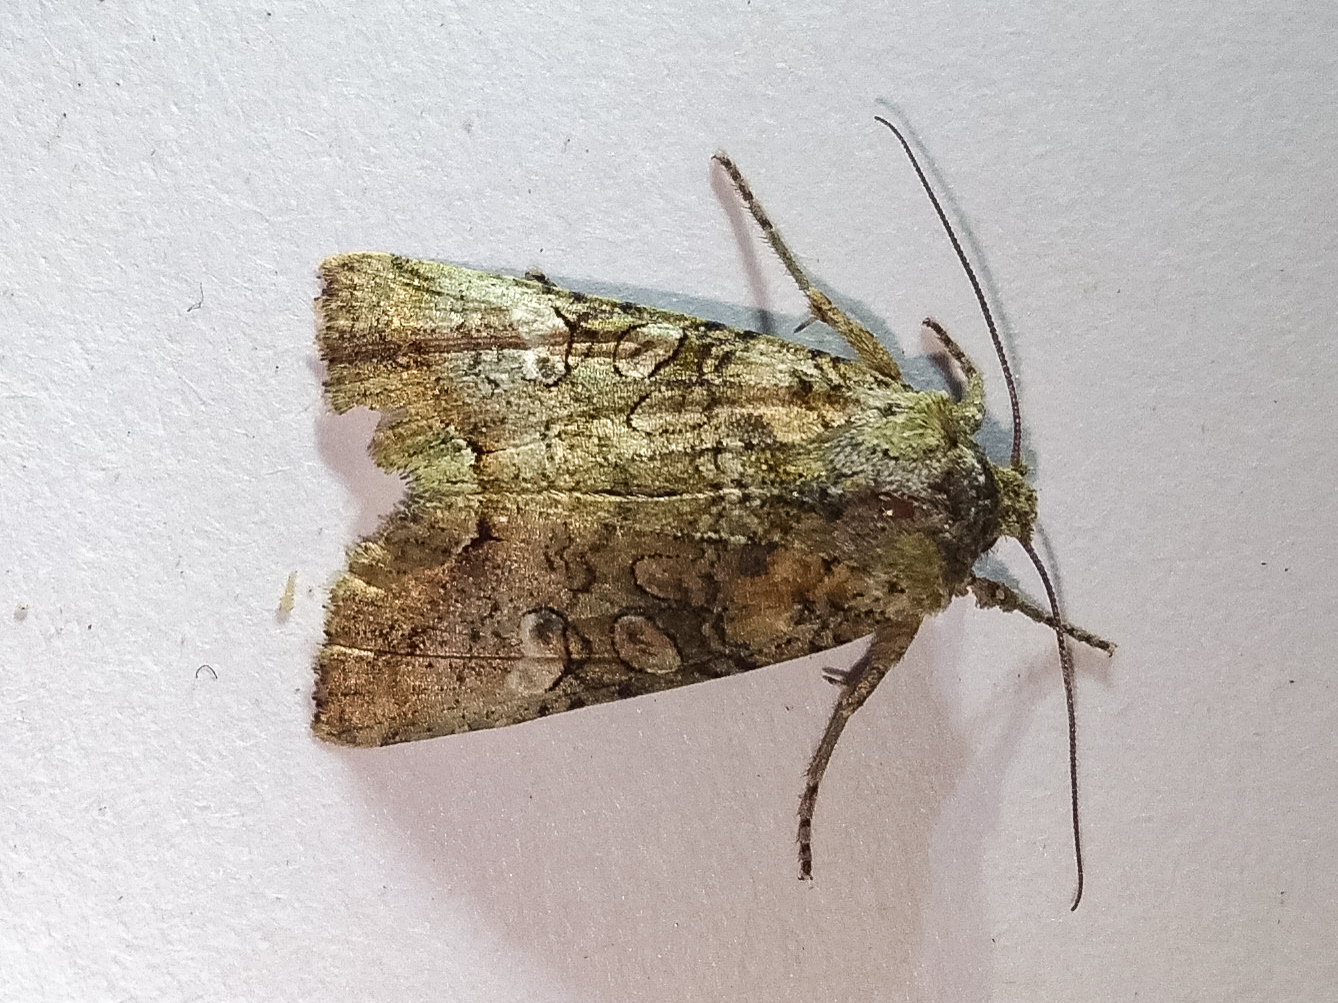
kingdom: Animalia
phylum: Arthropoda
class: Insecta
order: Lepidoptera
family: Noctuidae
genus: Meterana
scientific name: Meterana levis
